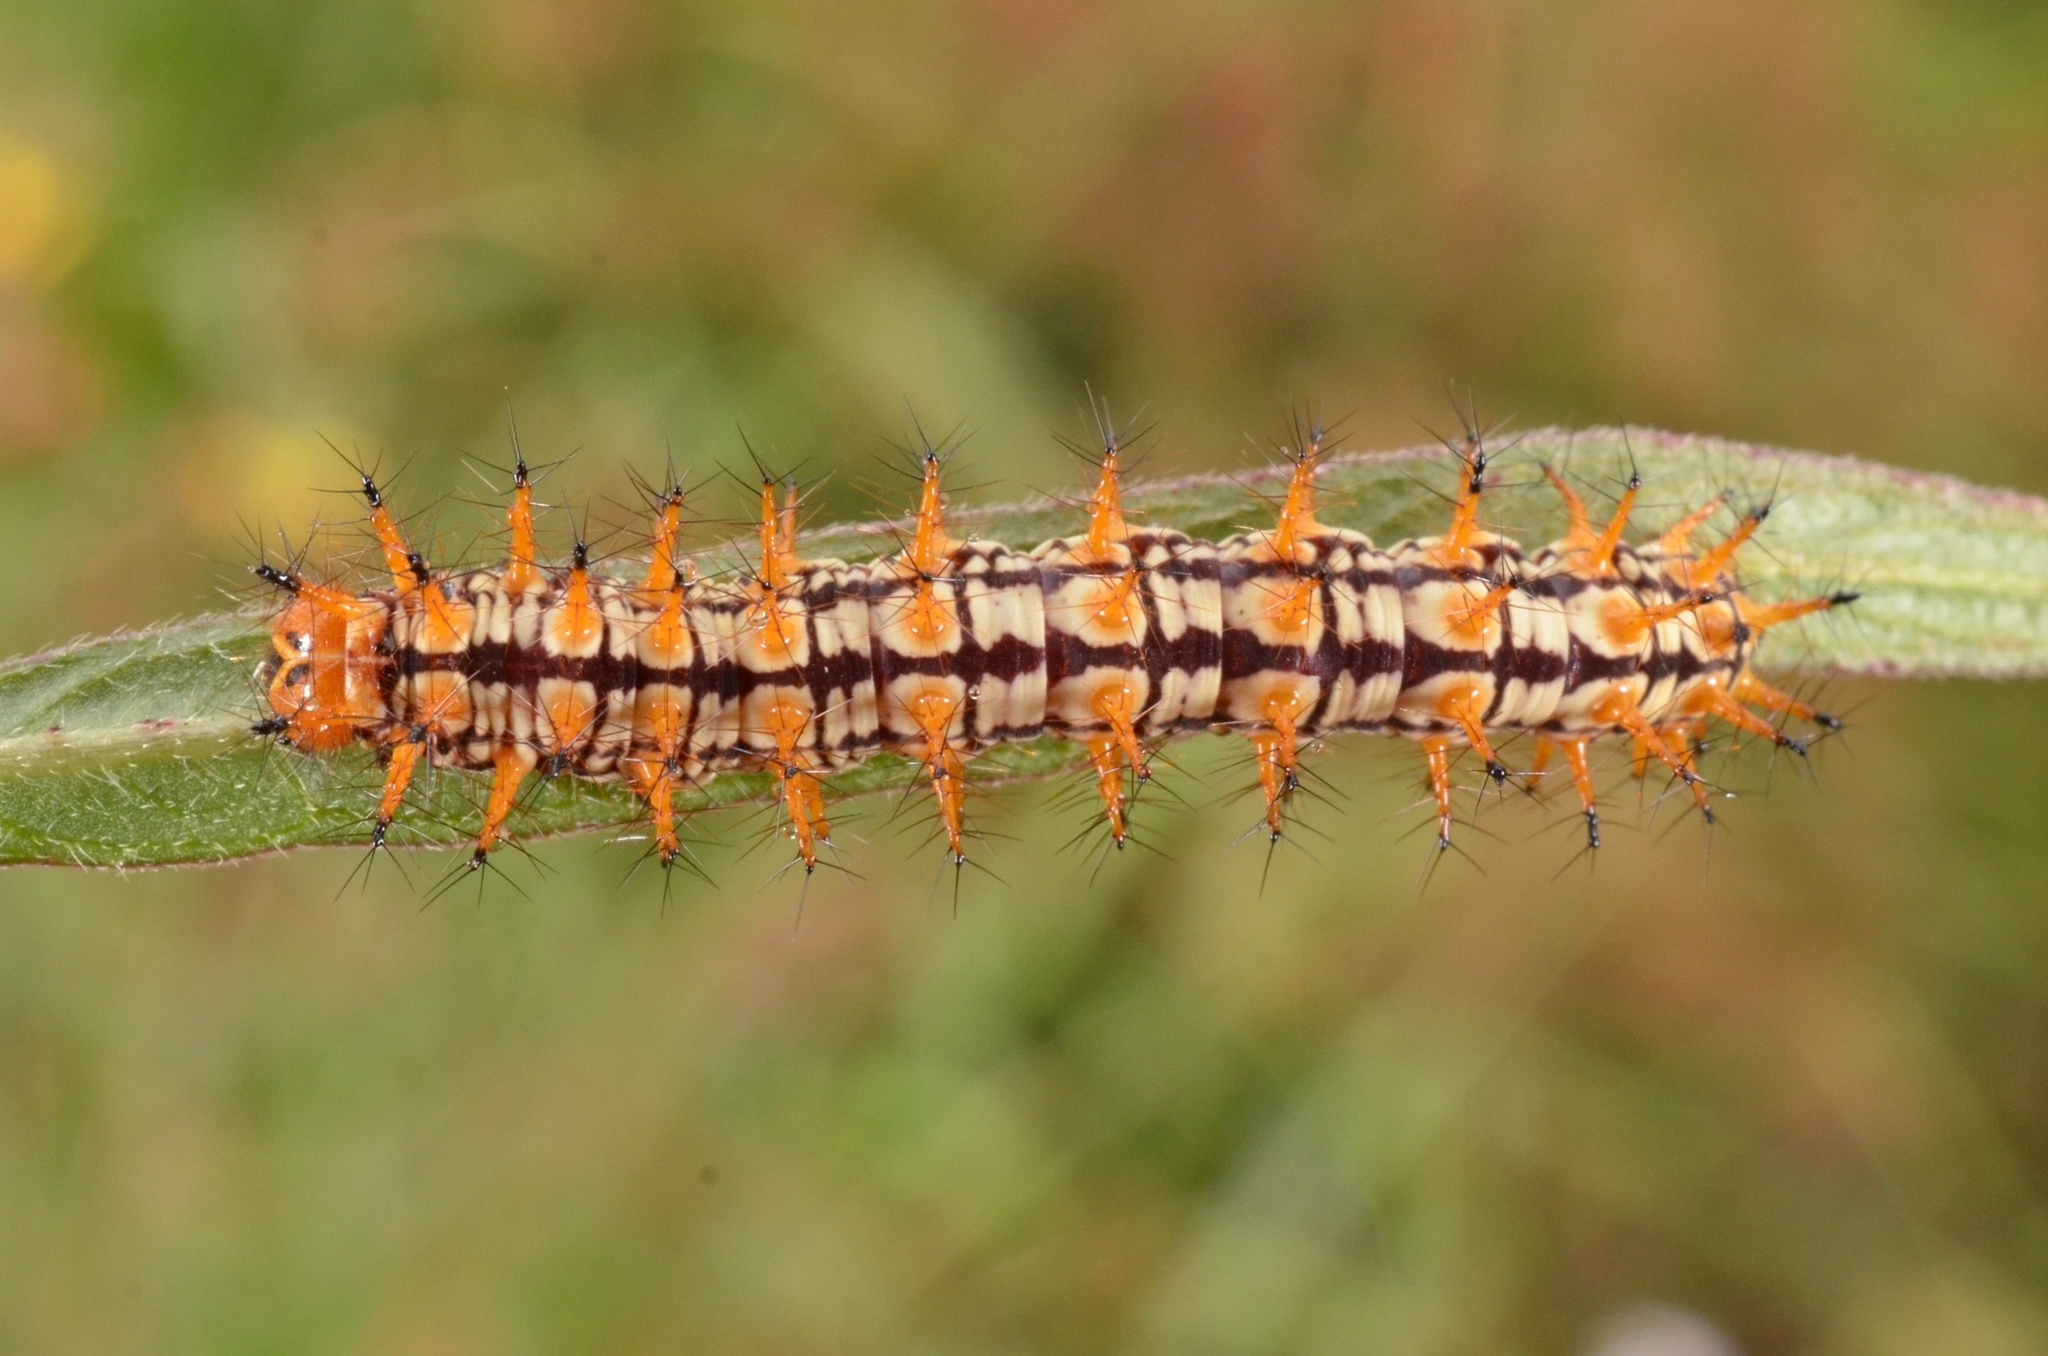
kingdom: Animalia
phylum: Arthropoda
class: Insecta
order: Lepidoptera
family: Nymphalidae
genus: Acraea
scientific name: Acraea Telchinia issoria
